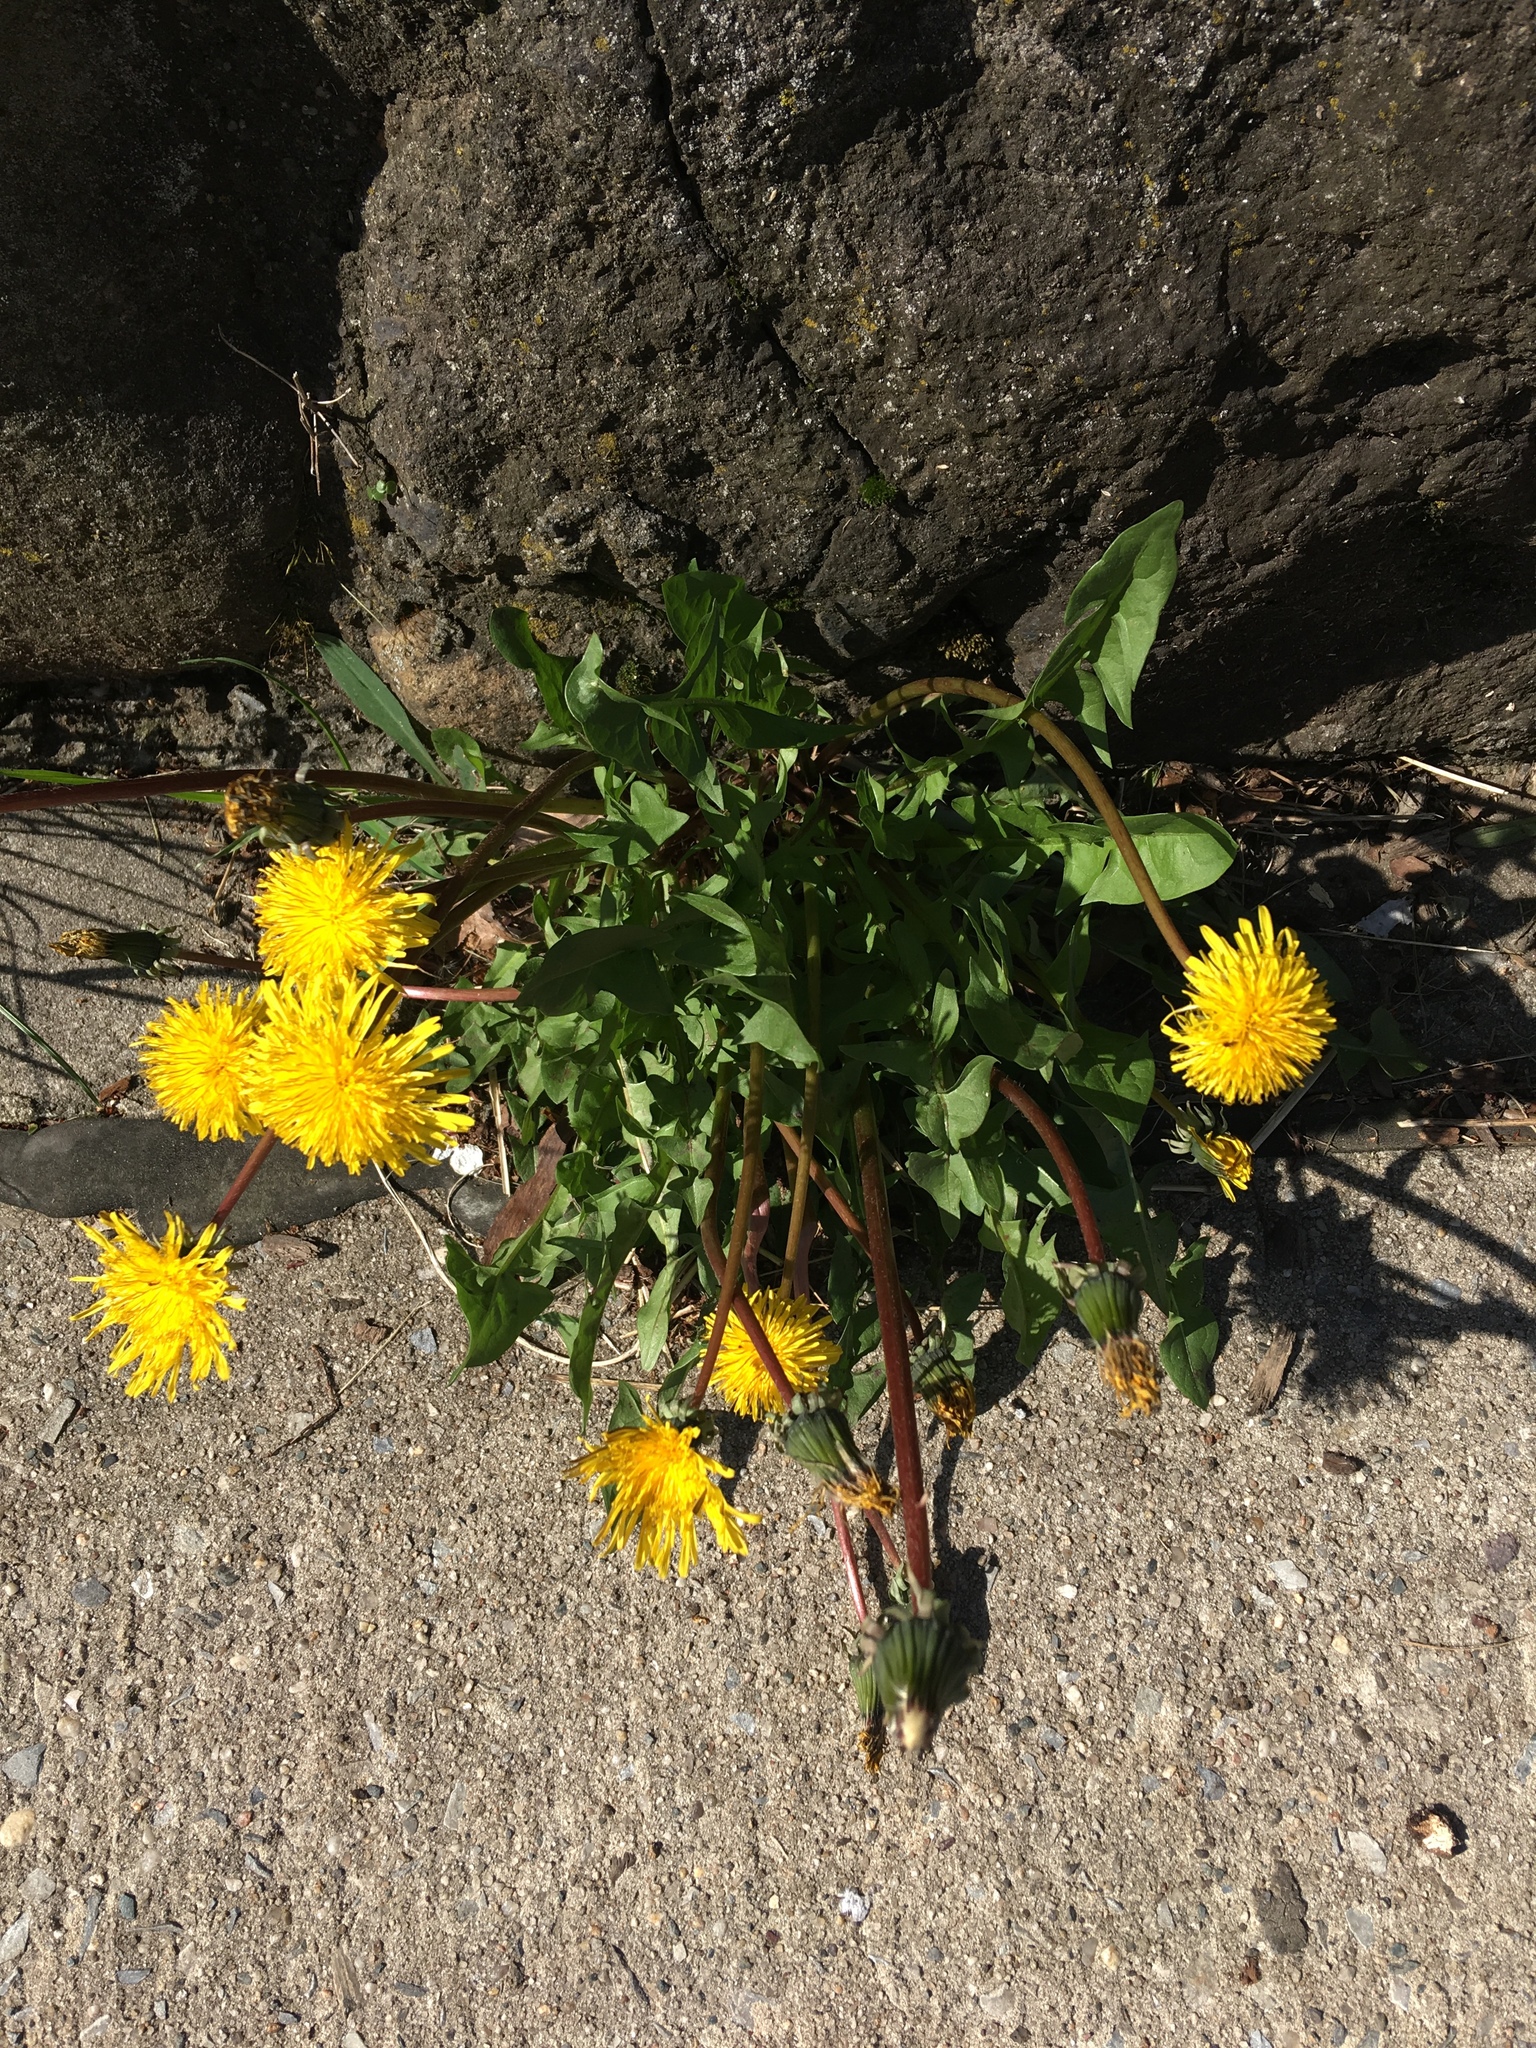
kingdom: Plantae
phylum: Tracheophyta
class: Magnoliopsida
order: Asterales
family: Asteraceae
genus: Taraxacum
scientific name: Taraxacum officinale
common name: Common dandelion
